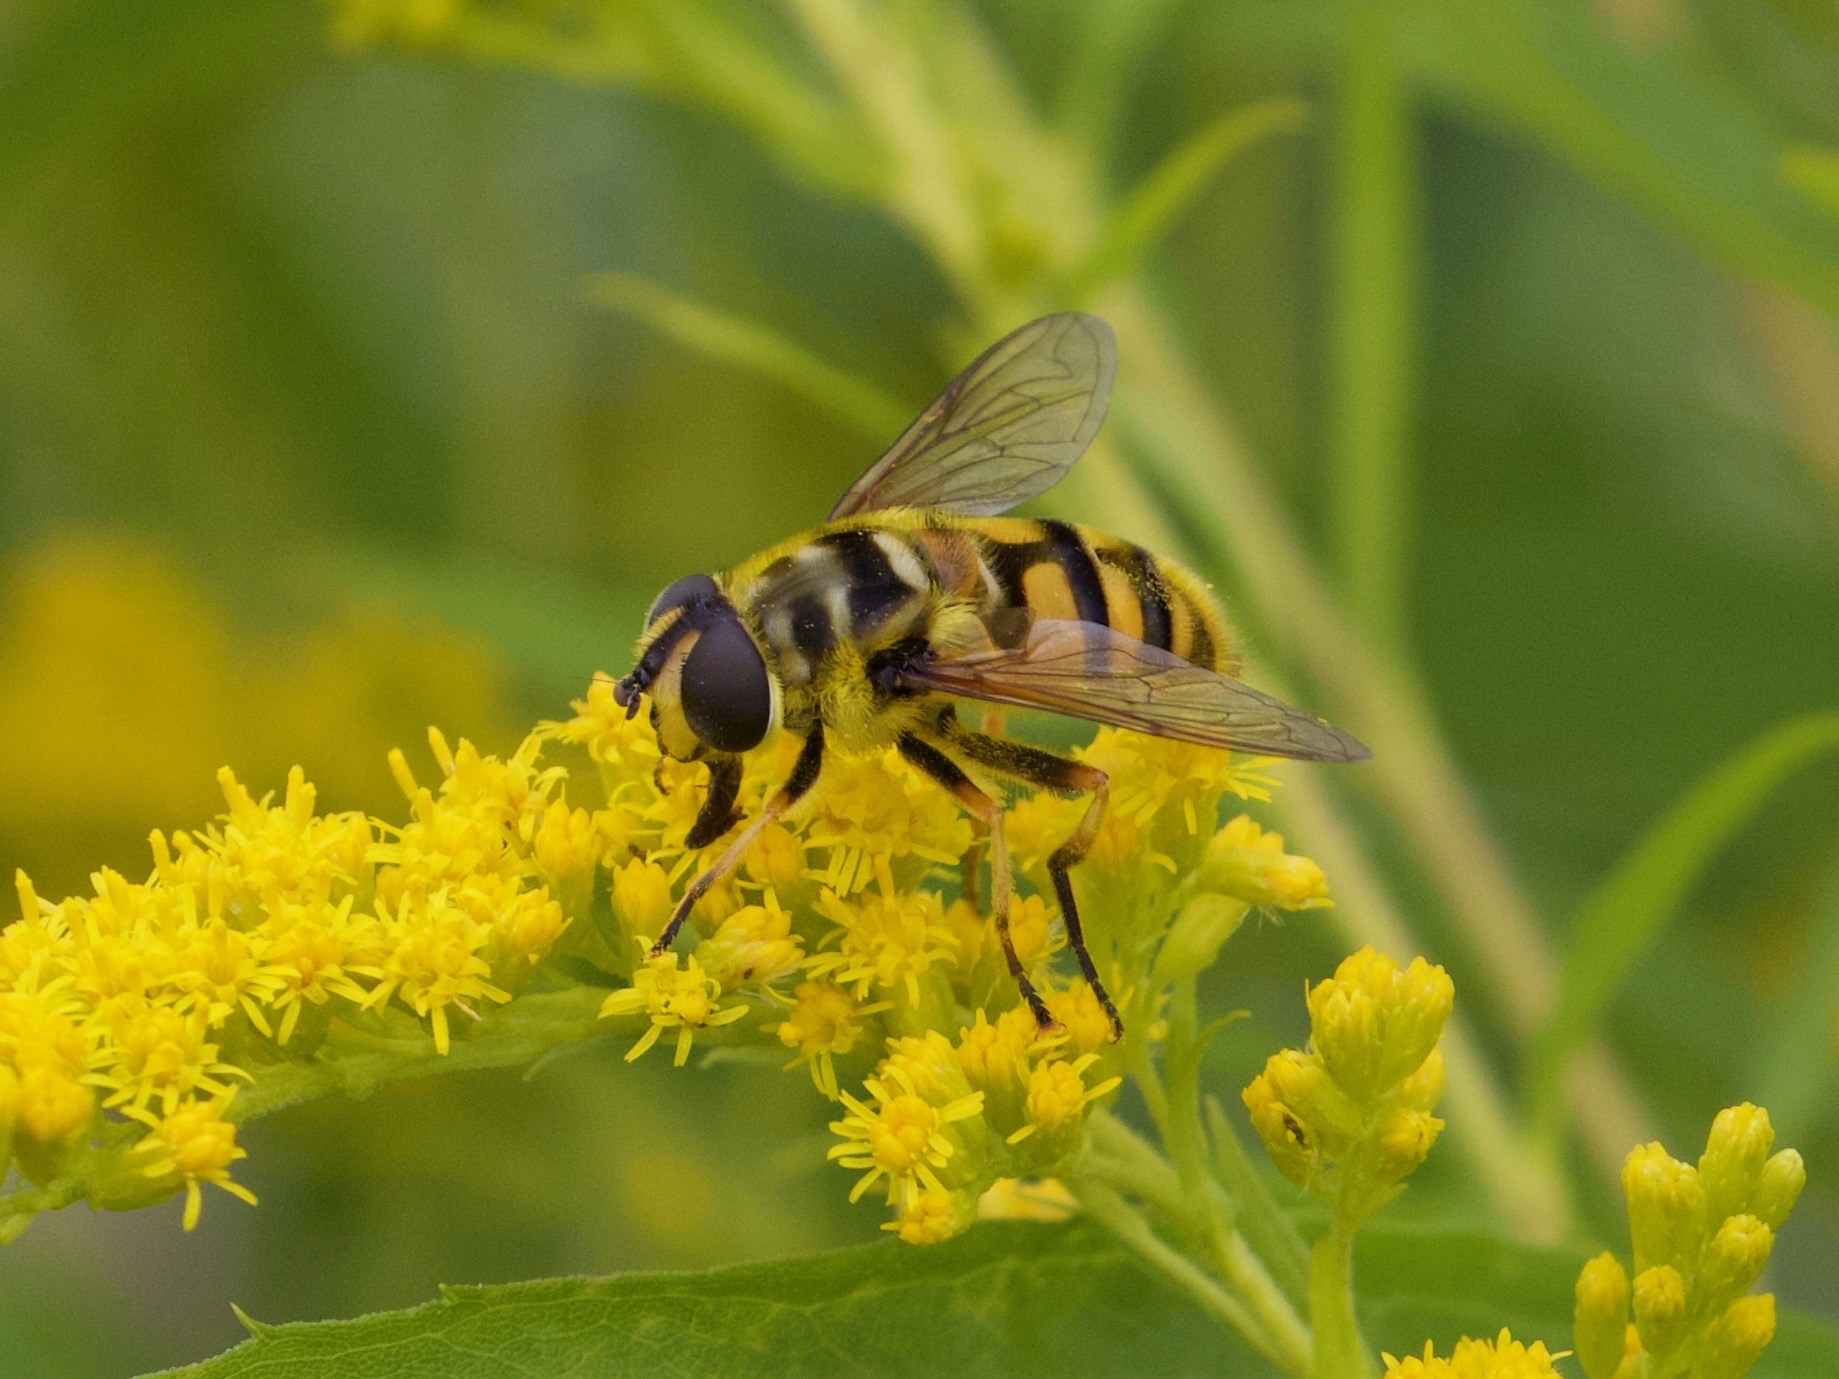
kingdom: Animalia
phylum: Arthropoda
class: Insecta
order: Diptera
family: Syrphidae
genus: Myathropa
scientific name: Myathropa florea
